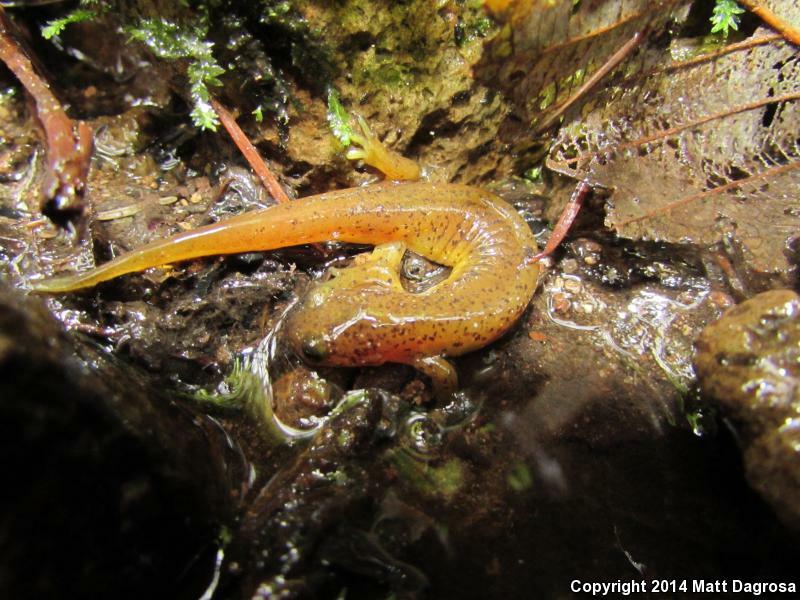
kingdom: Animalia
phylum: Chordata
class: Amphibia
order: Caudata
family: Rhyacotritonidae
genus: Rhyacotriton
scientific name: Rhyacotriton cascadae
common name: Cascade torrent salamander
